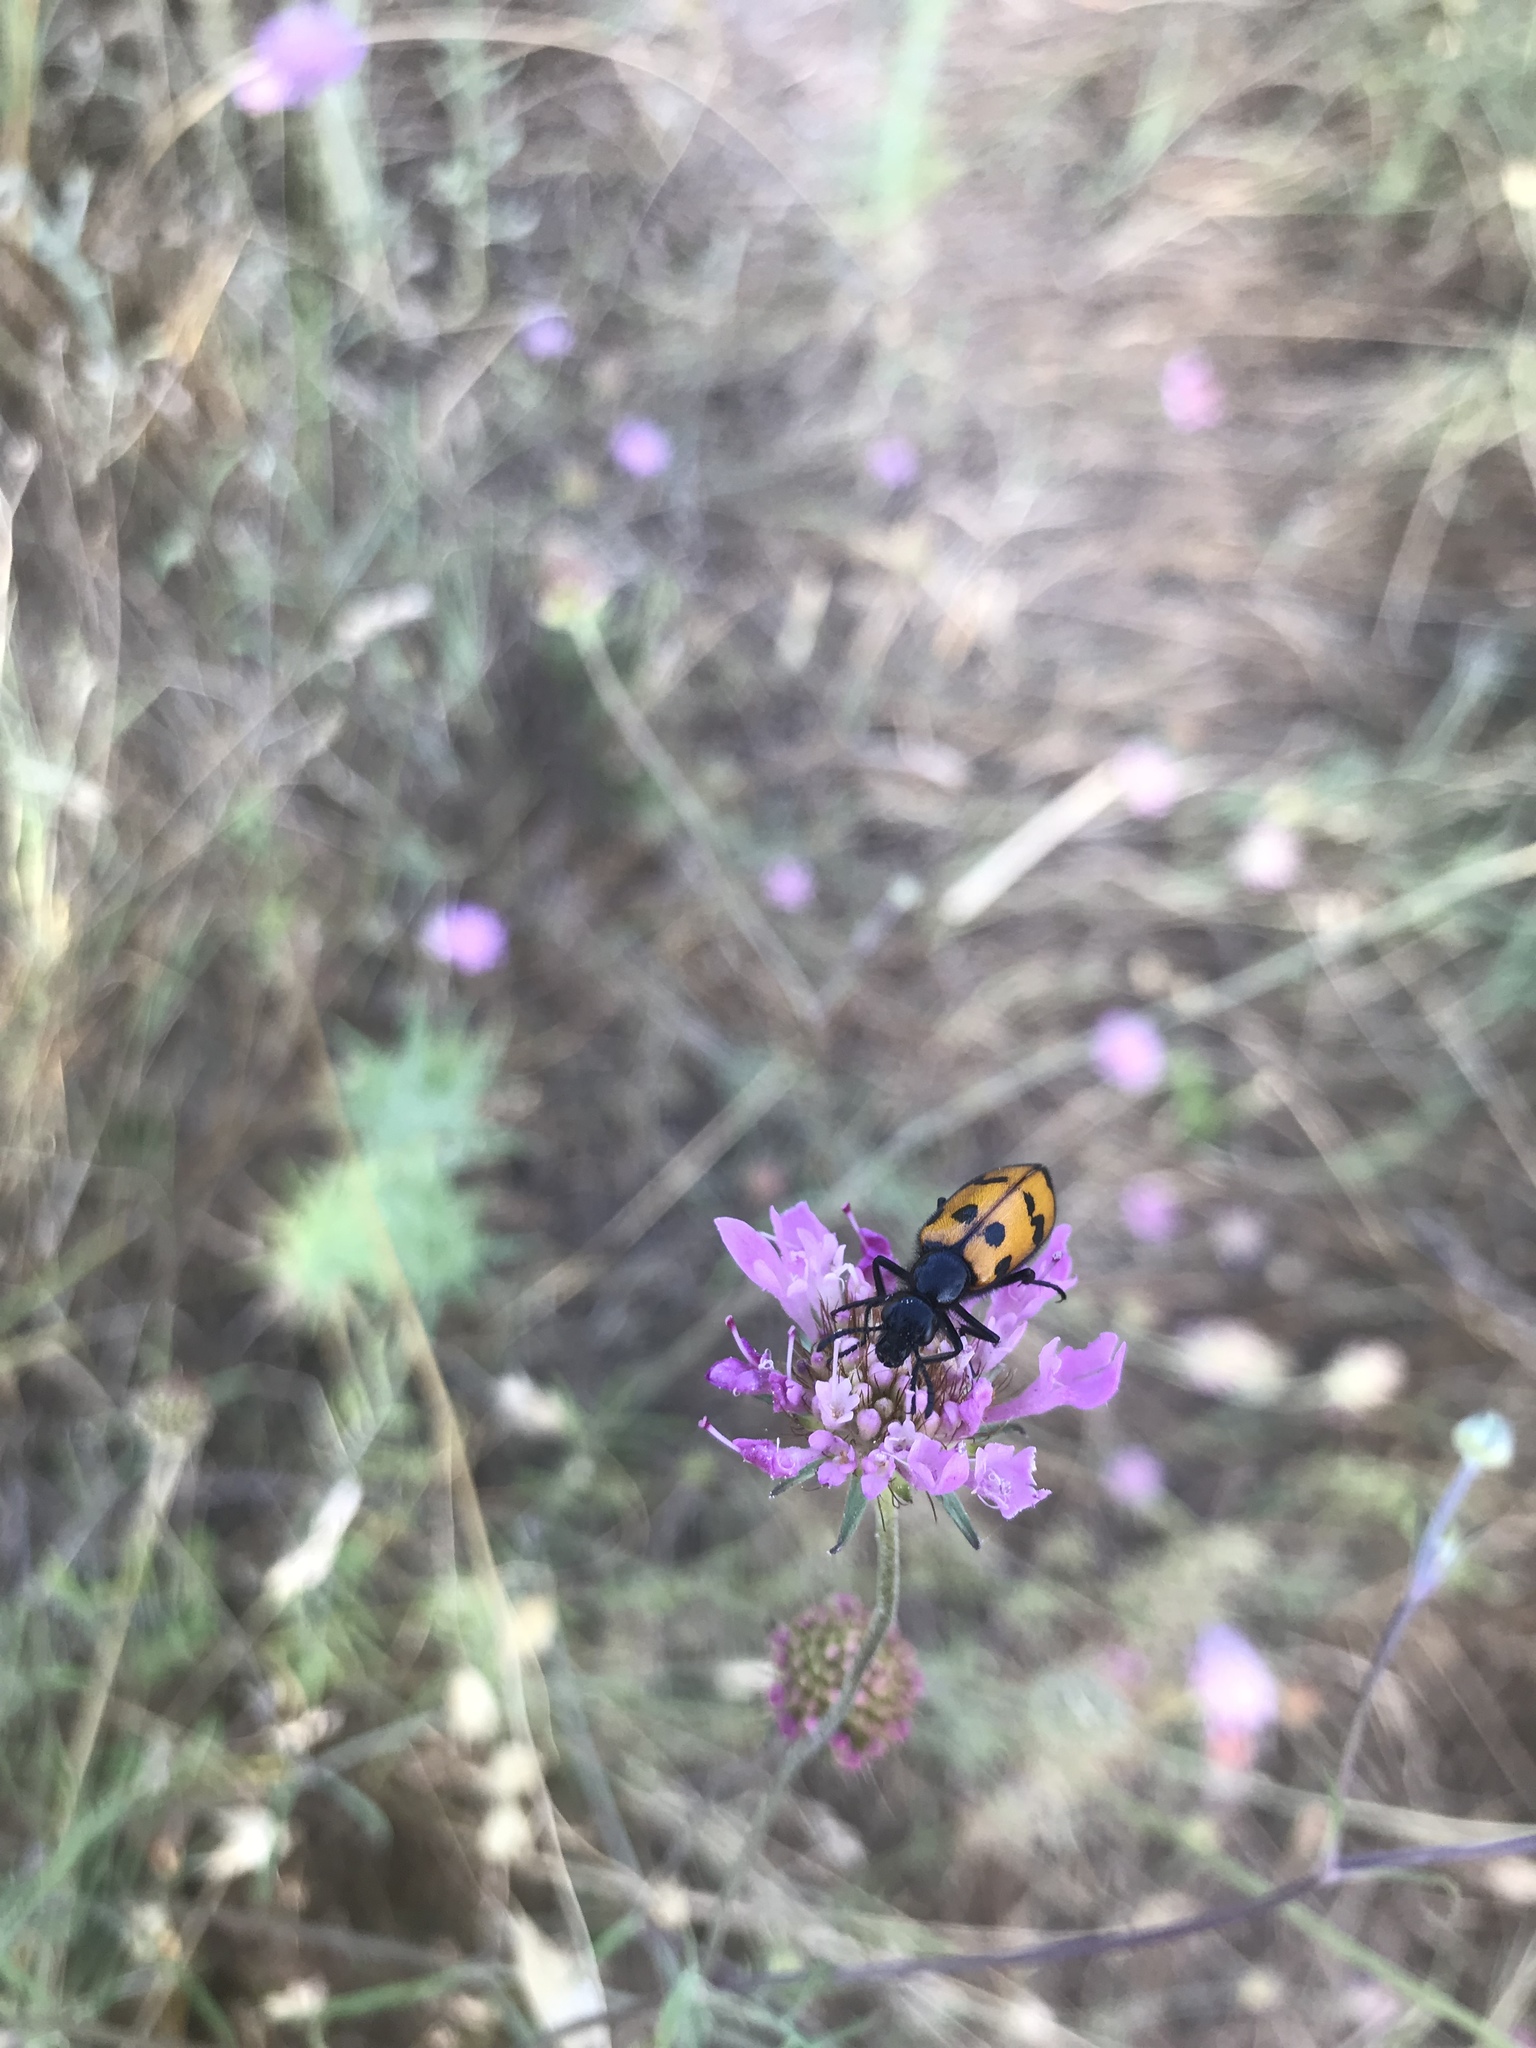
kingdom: Animalia
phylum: Arthropoda
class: Insecta
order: Coleoptera
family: Meloidae
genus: Mylabris
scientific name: Mylabris variabilis
